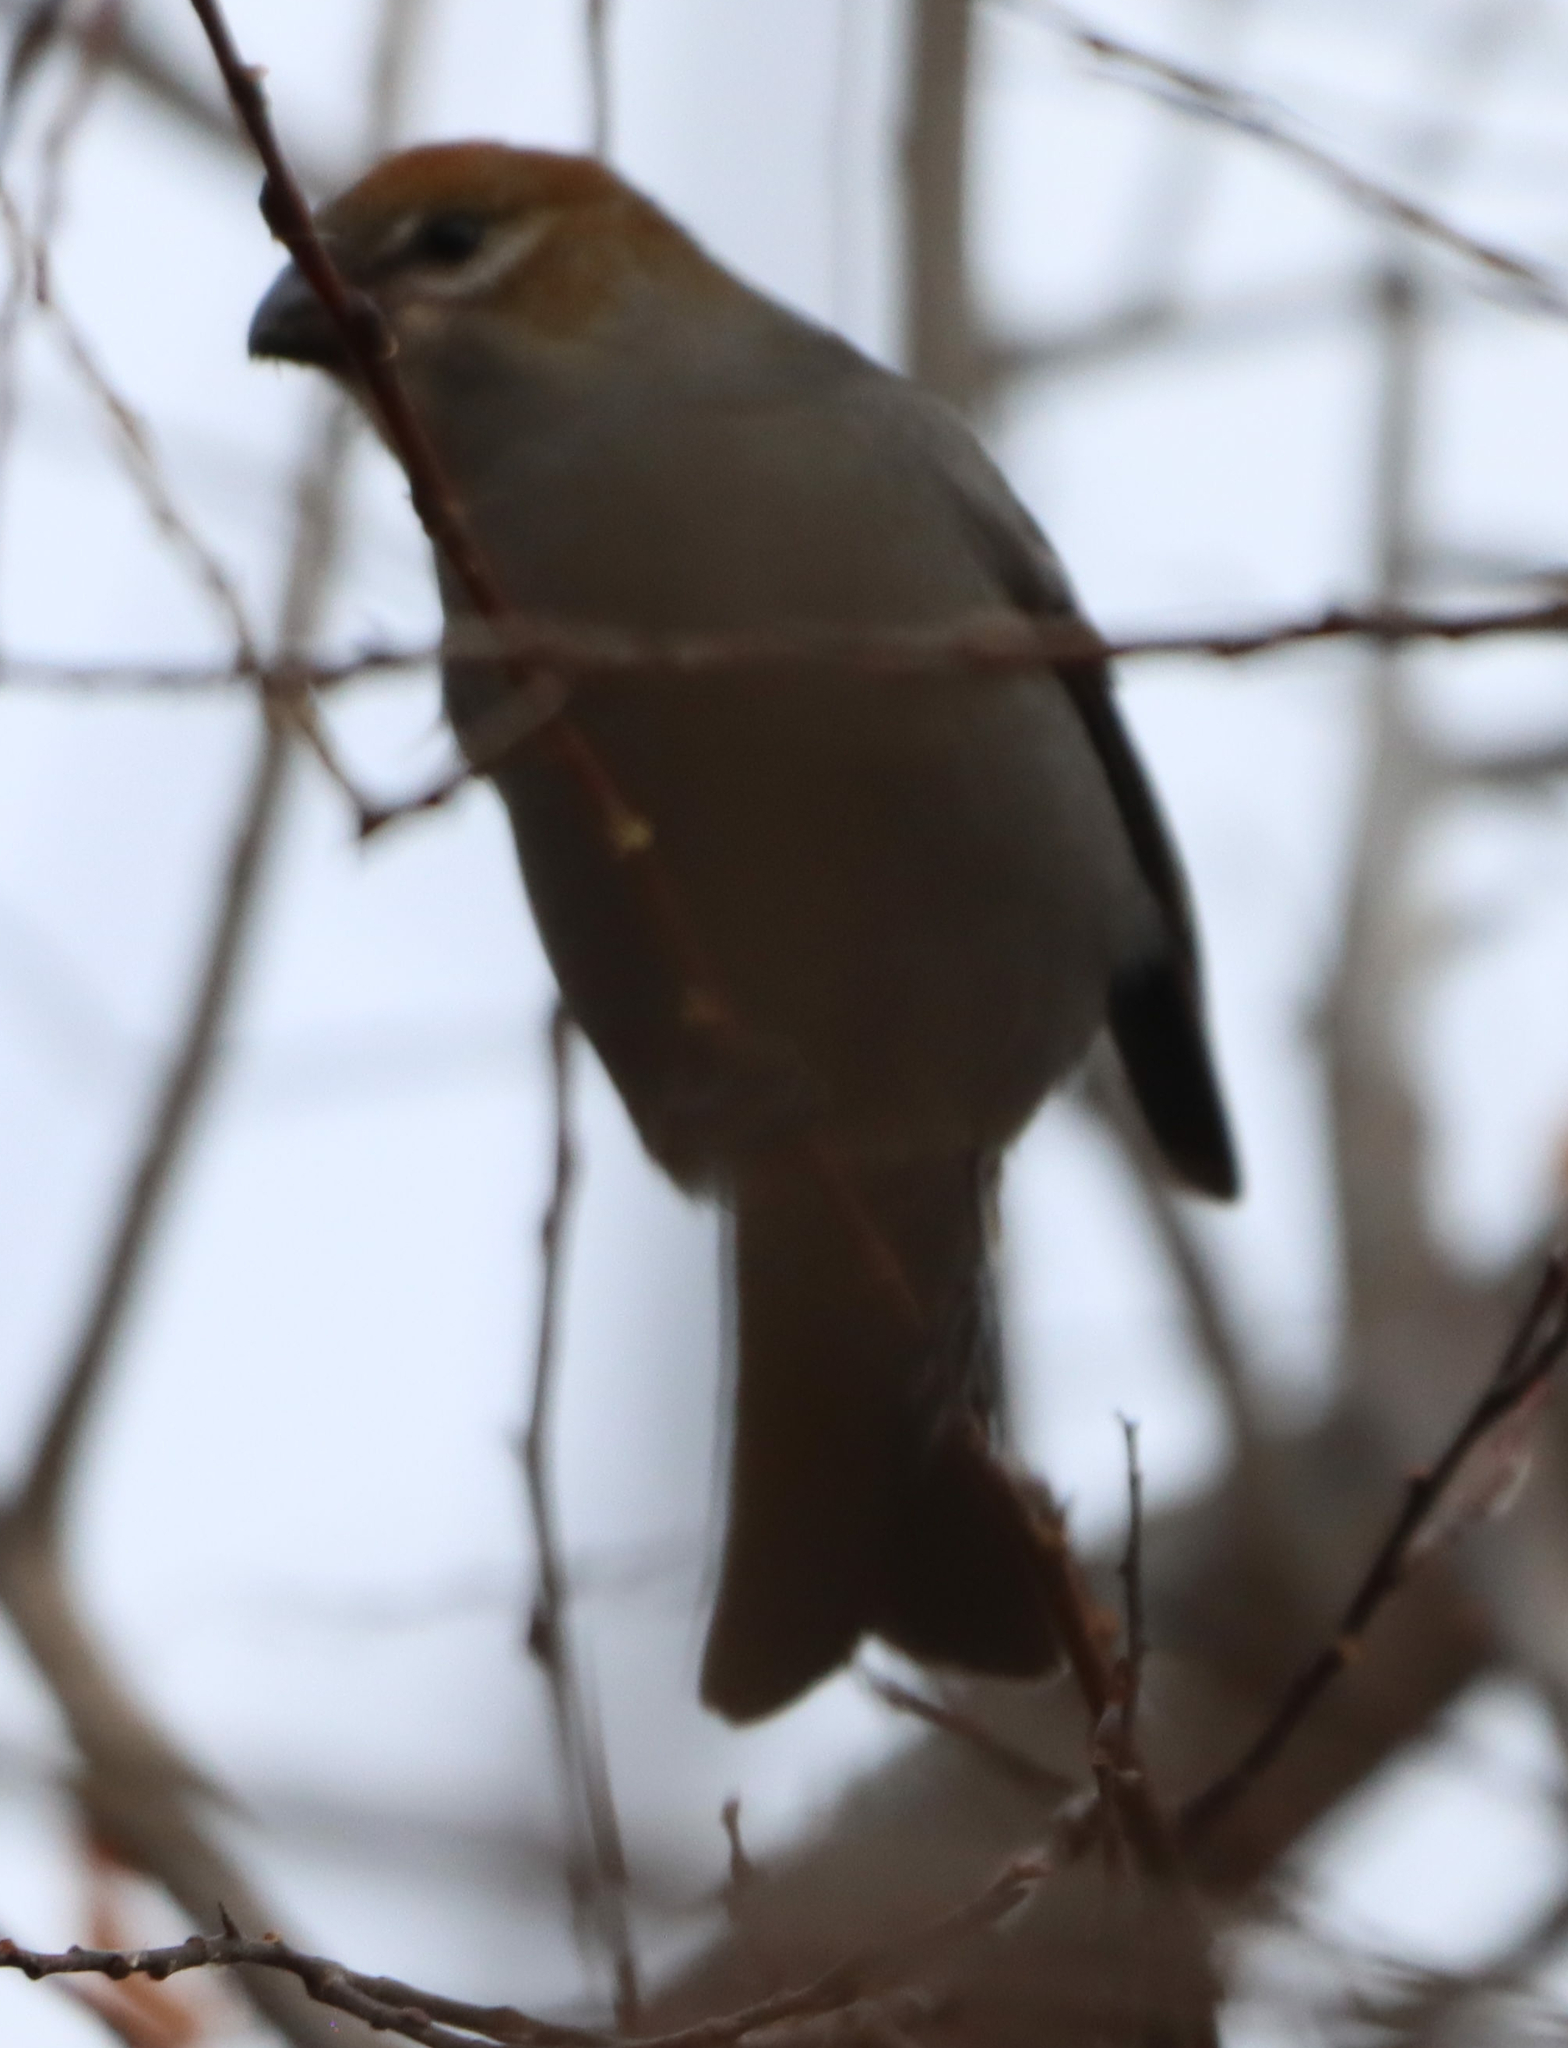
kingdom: Animalia
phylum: Chordata
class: Aves
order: Passeriformes
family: Fringillidae
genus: Pinicola
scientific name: Pinicola enucleator
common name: Pine grosbeak
